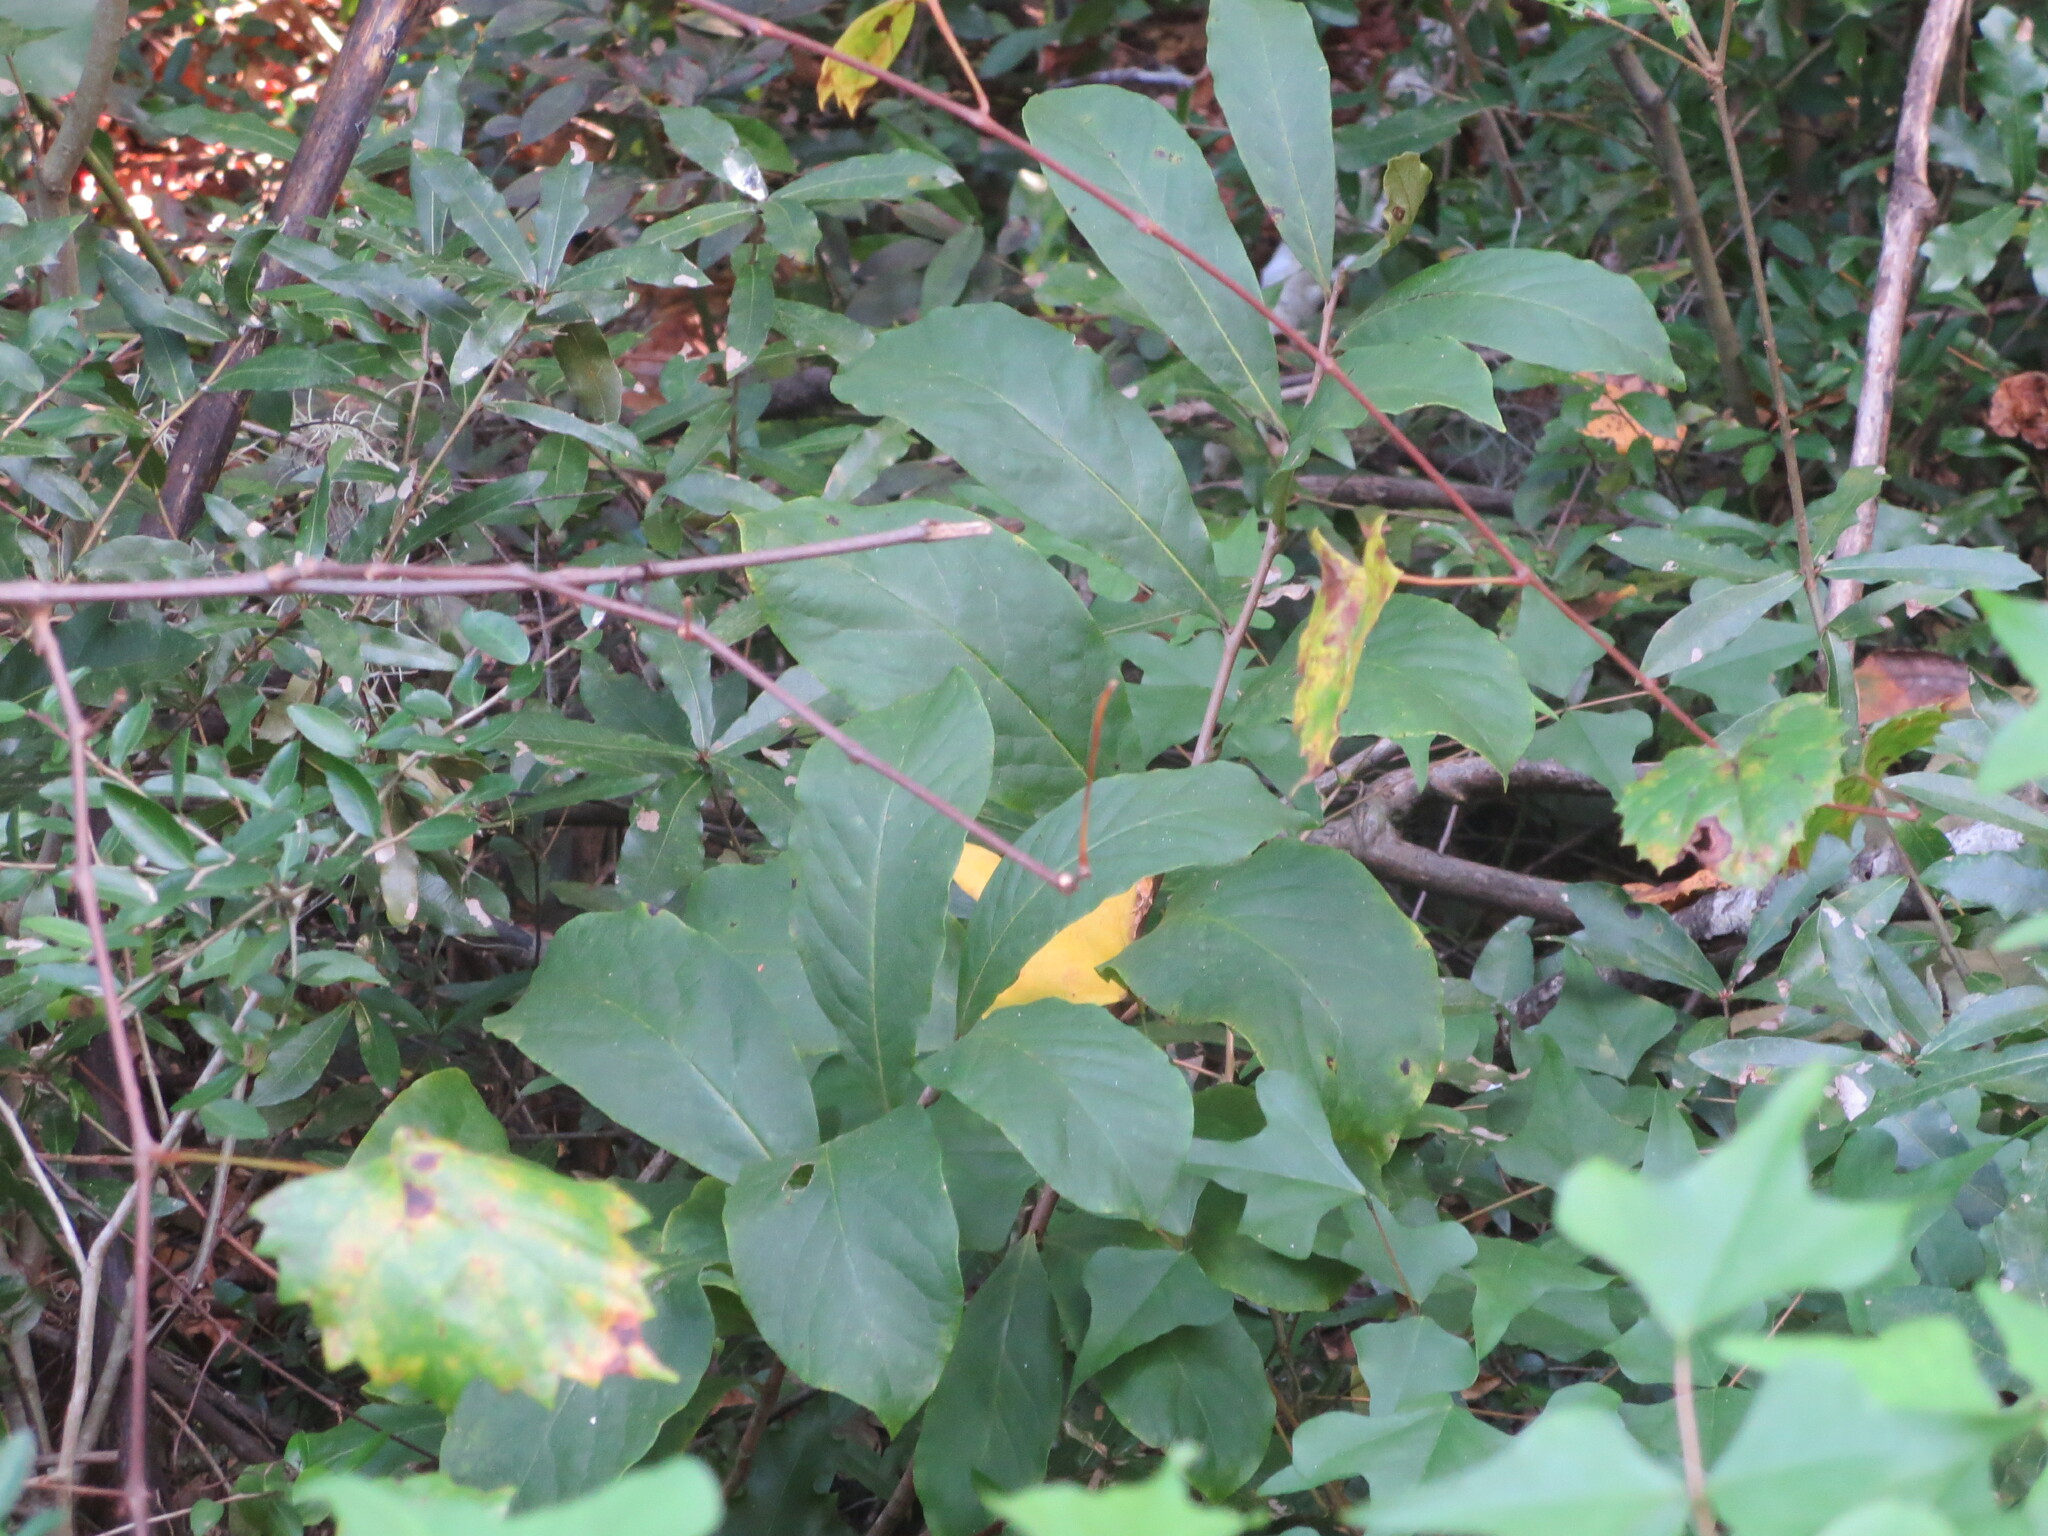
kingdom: Plantae
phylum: Tracheophyta
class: Magnoliopsida
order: Magnoliales
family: Annonaceae
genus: Asimina
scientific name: Asimina parviflora
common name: Dwarf pawpaw
